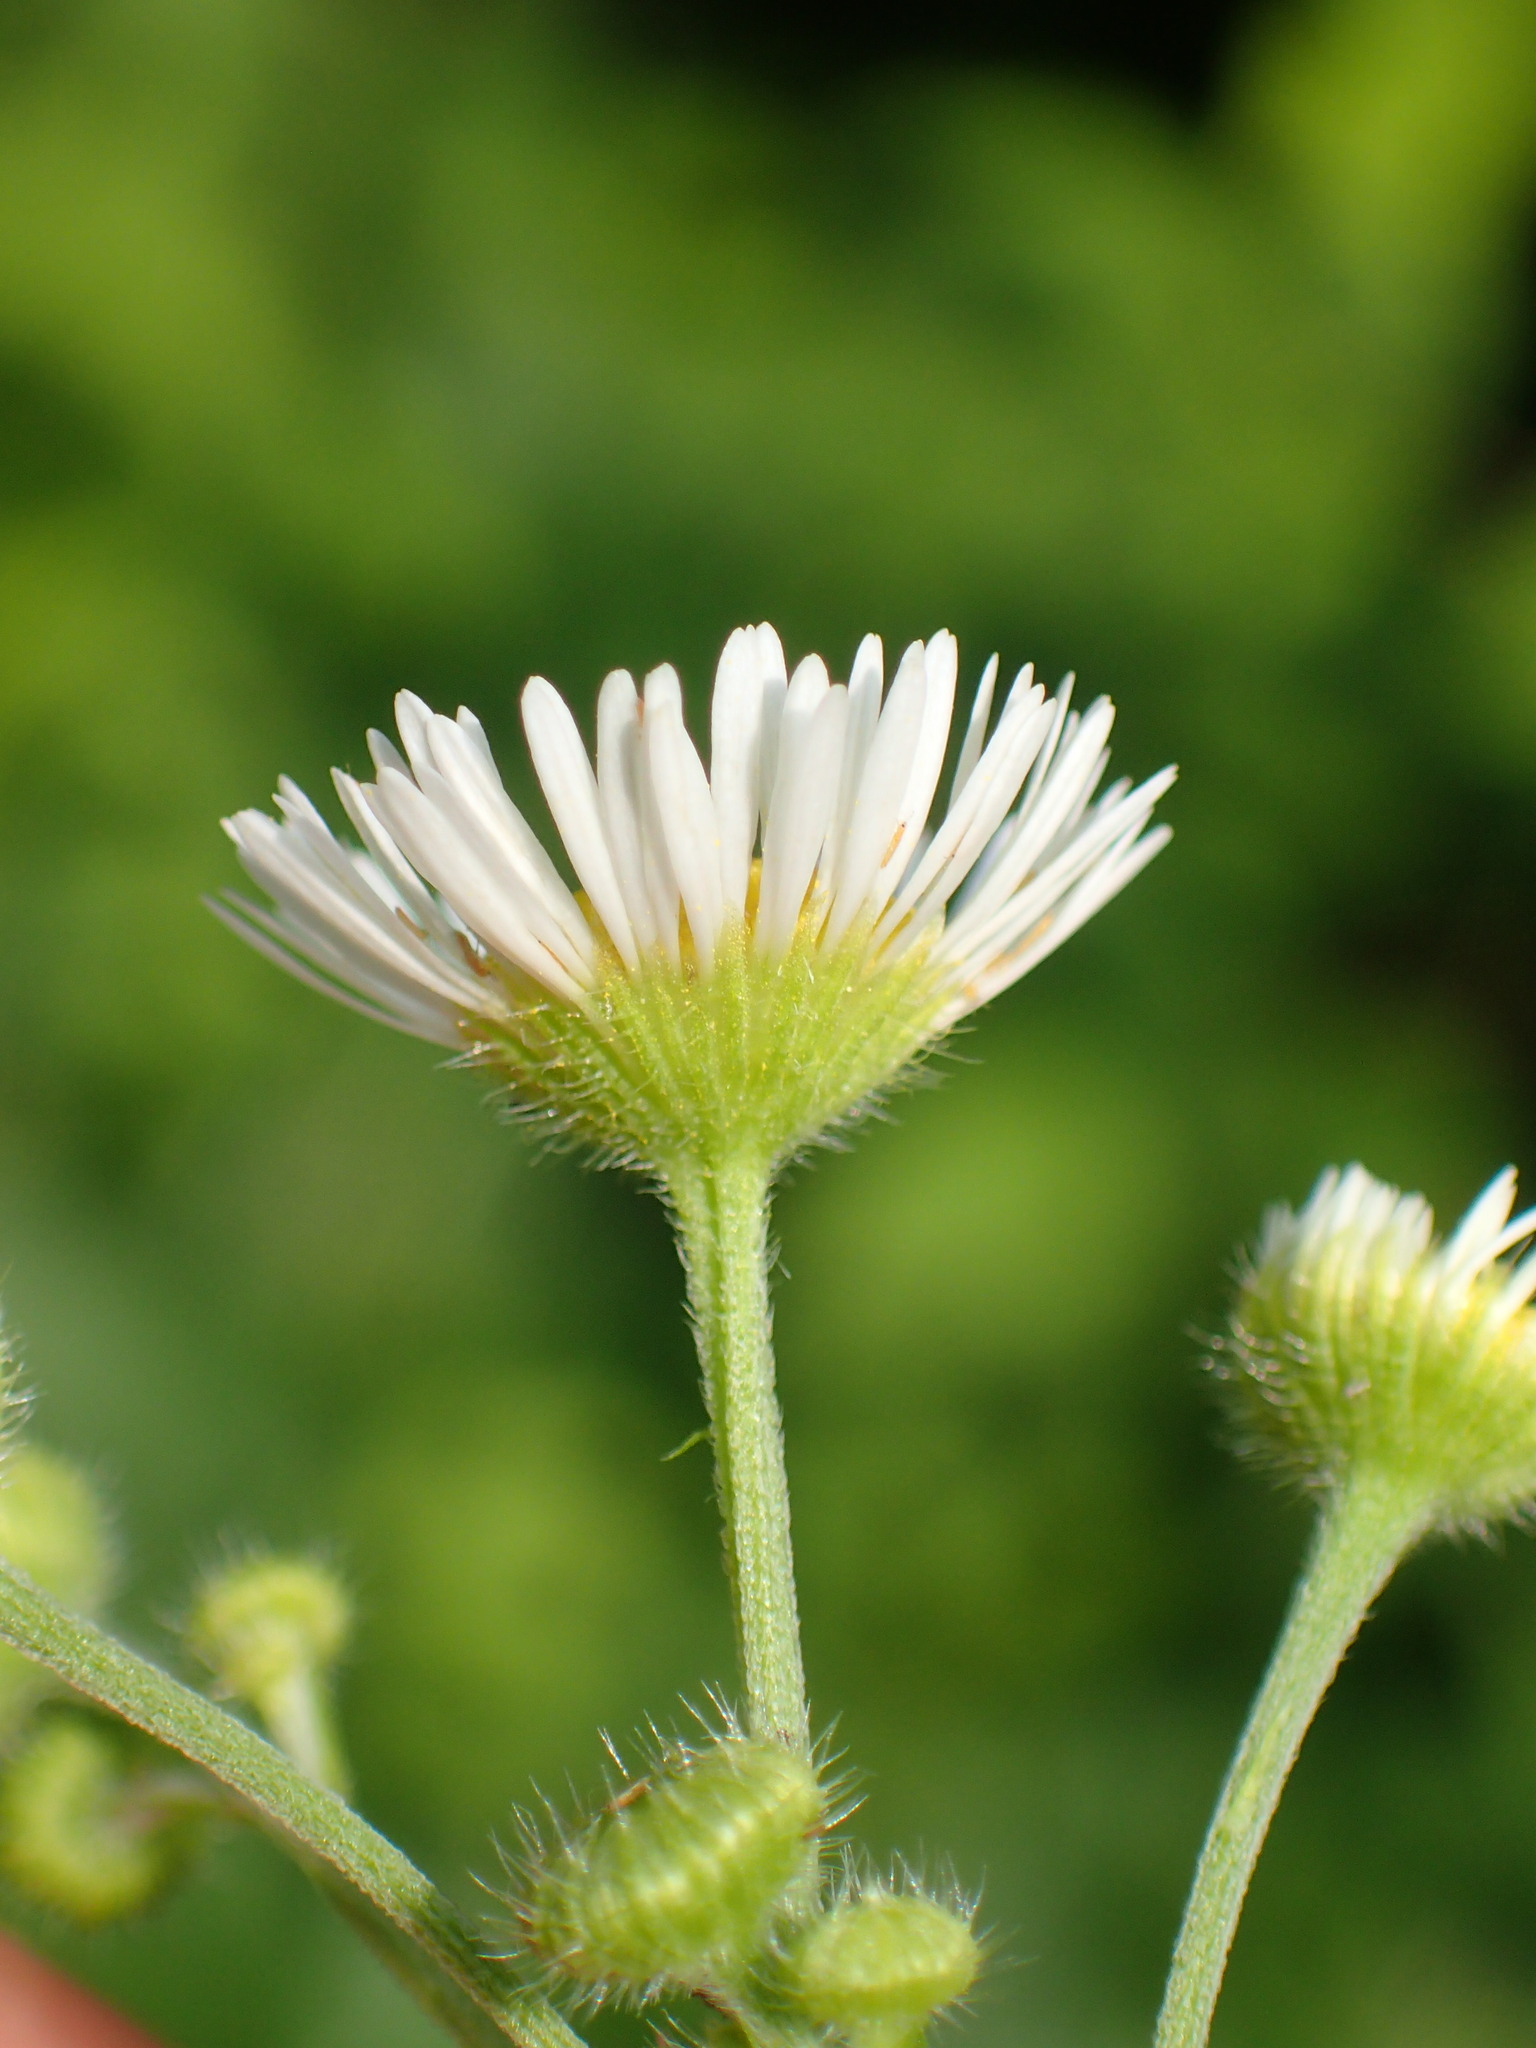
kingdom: Plantae
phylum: Tracheophyta
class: Magnoliopsida
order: Asterales
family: Asteraceae
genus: Erigeron
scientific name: Erigeron strigosus
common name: Common eastern fleabane
